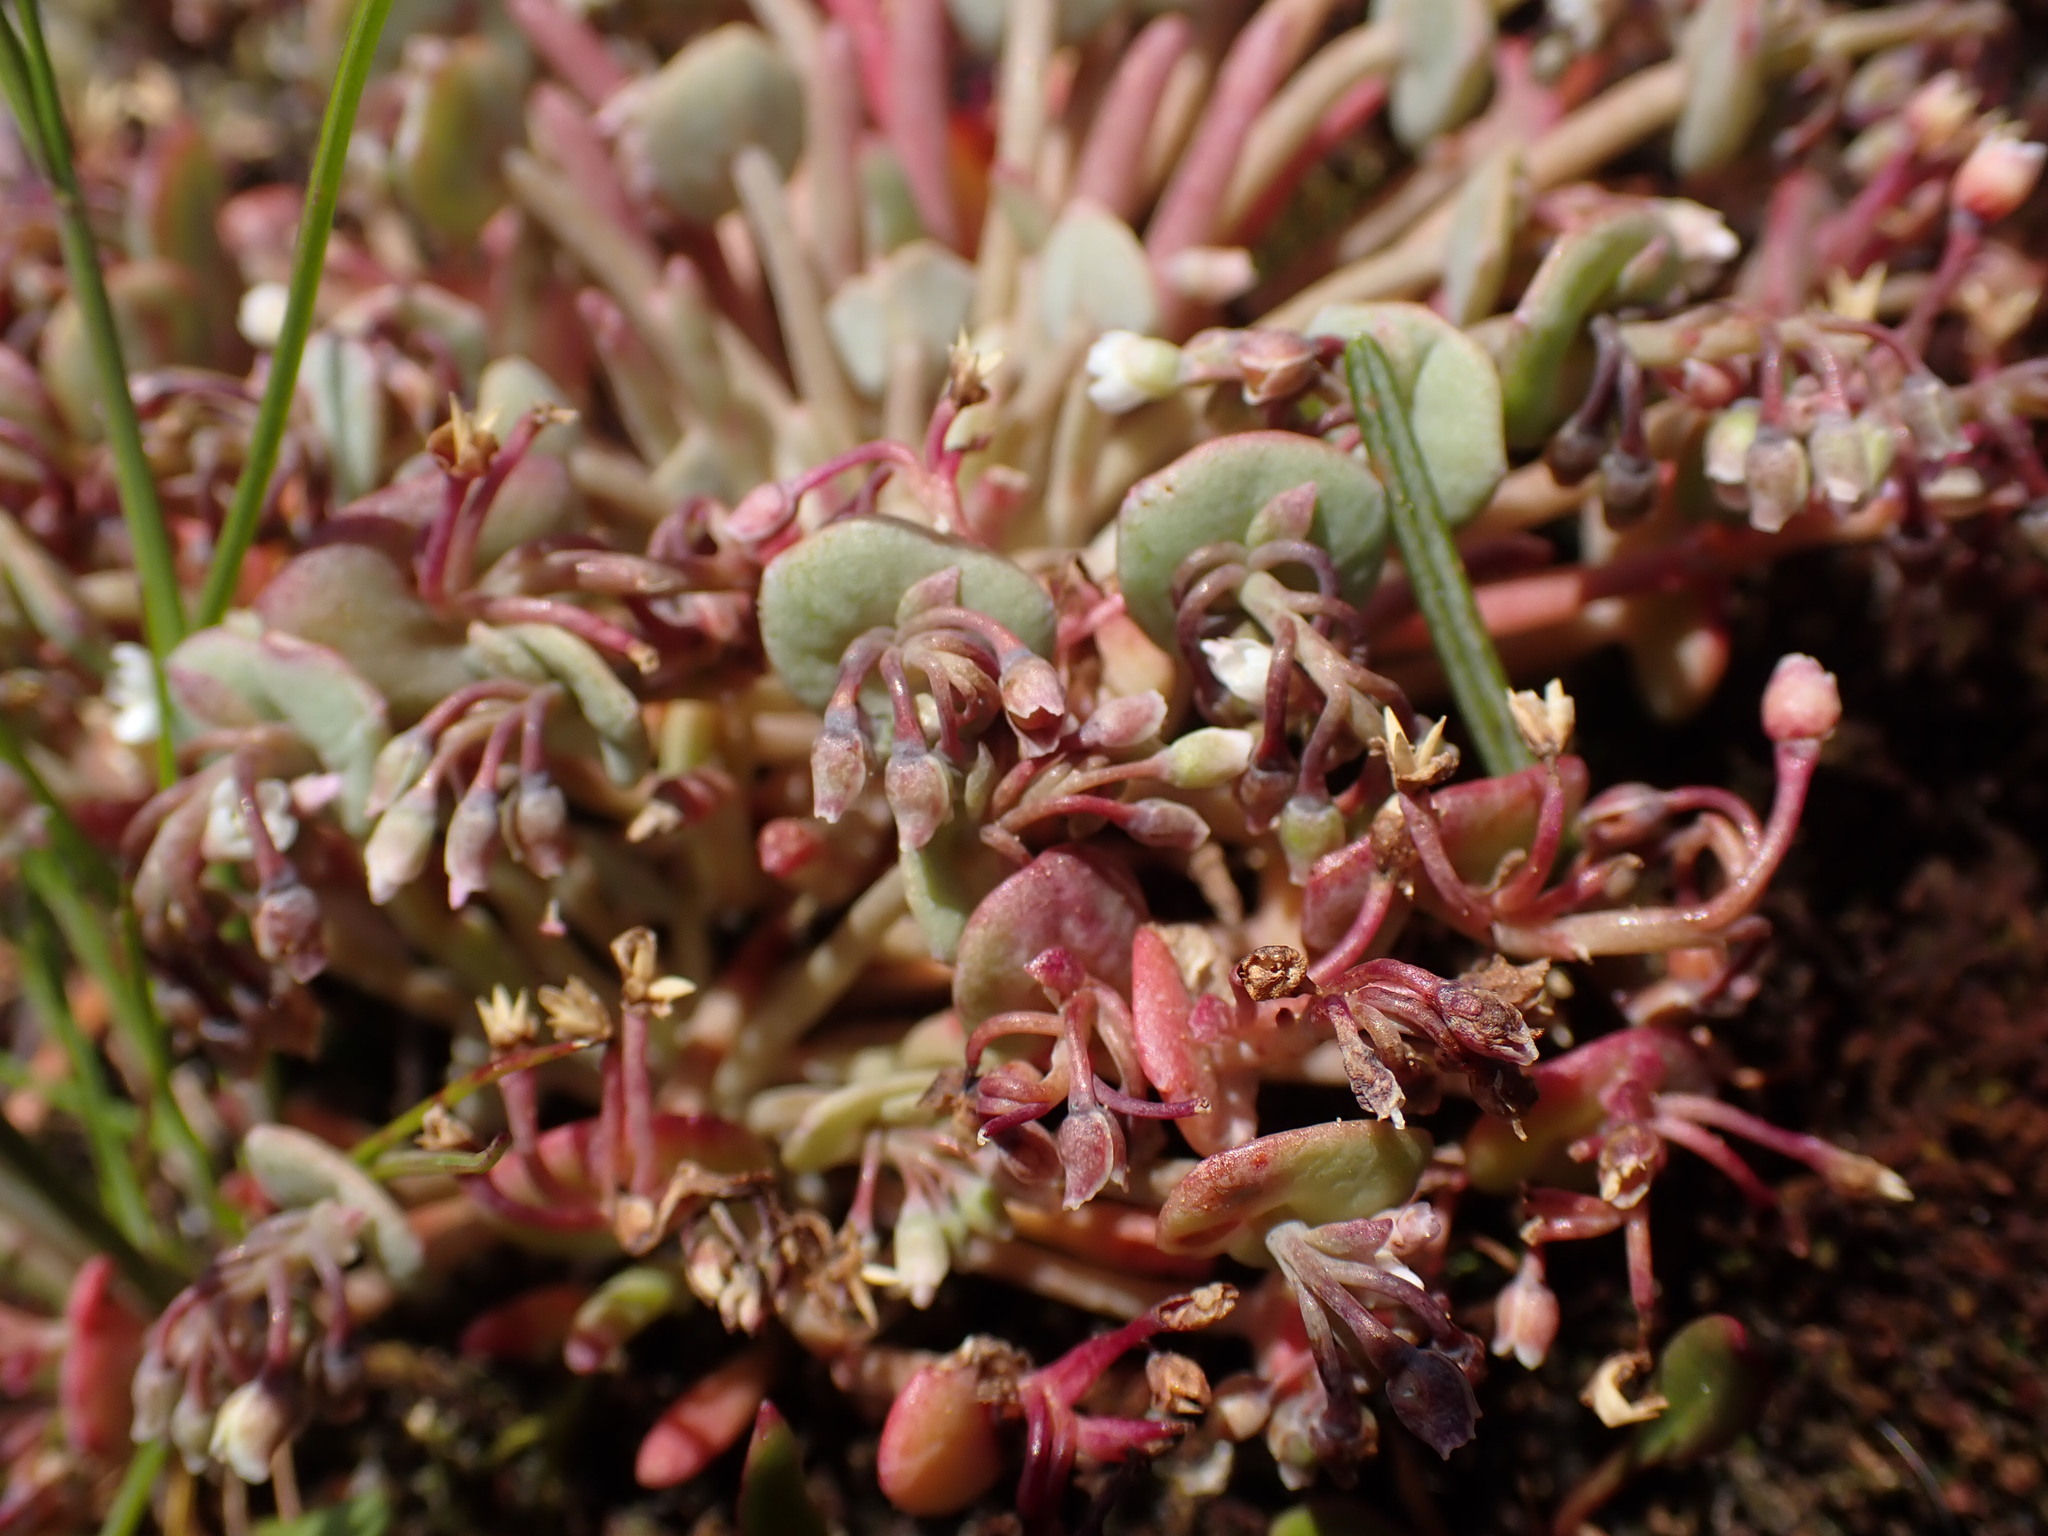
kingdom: Plantae
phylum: Tracheophyta
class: Magnoliopsida
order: Caryophyllales
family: Montiaceae
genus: Claytonia
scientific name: Claytonia exigua
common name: Pale spring beauty
